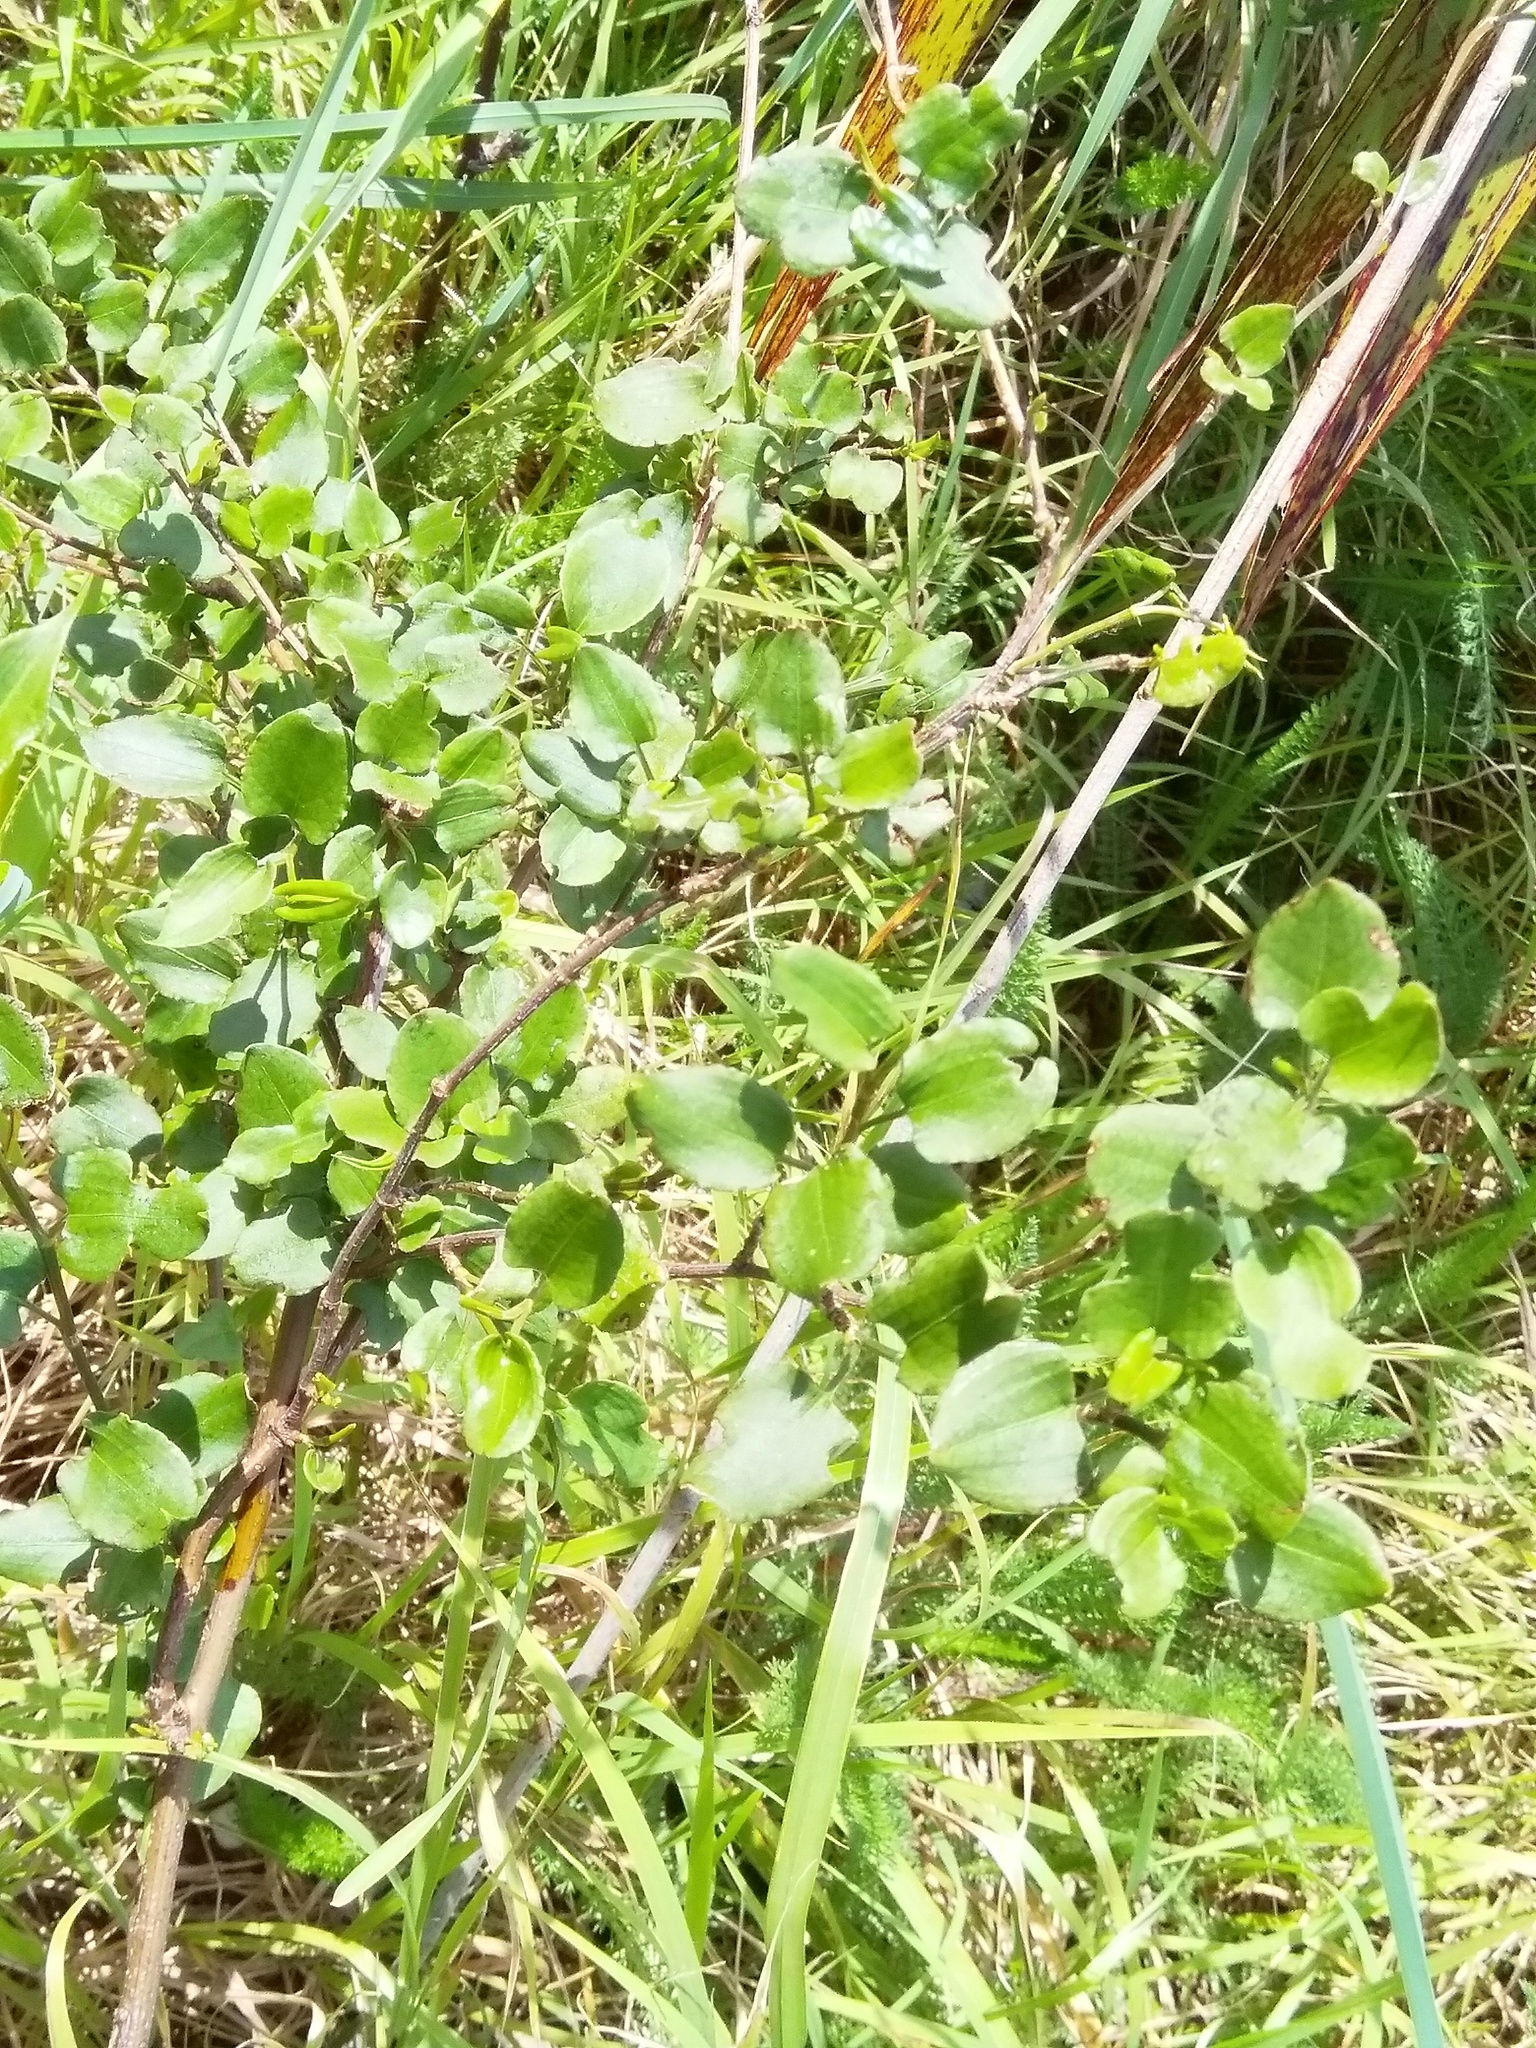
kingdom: Plantae
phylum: Tracheophyta
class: Magnoliopsida
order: Caryophyllales
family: Polygonaceae
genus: Muehlenbeckia
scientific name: Muehlenbeckia australis
